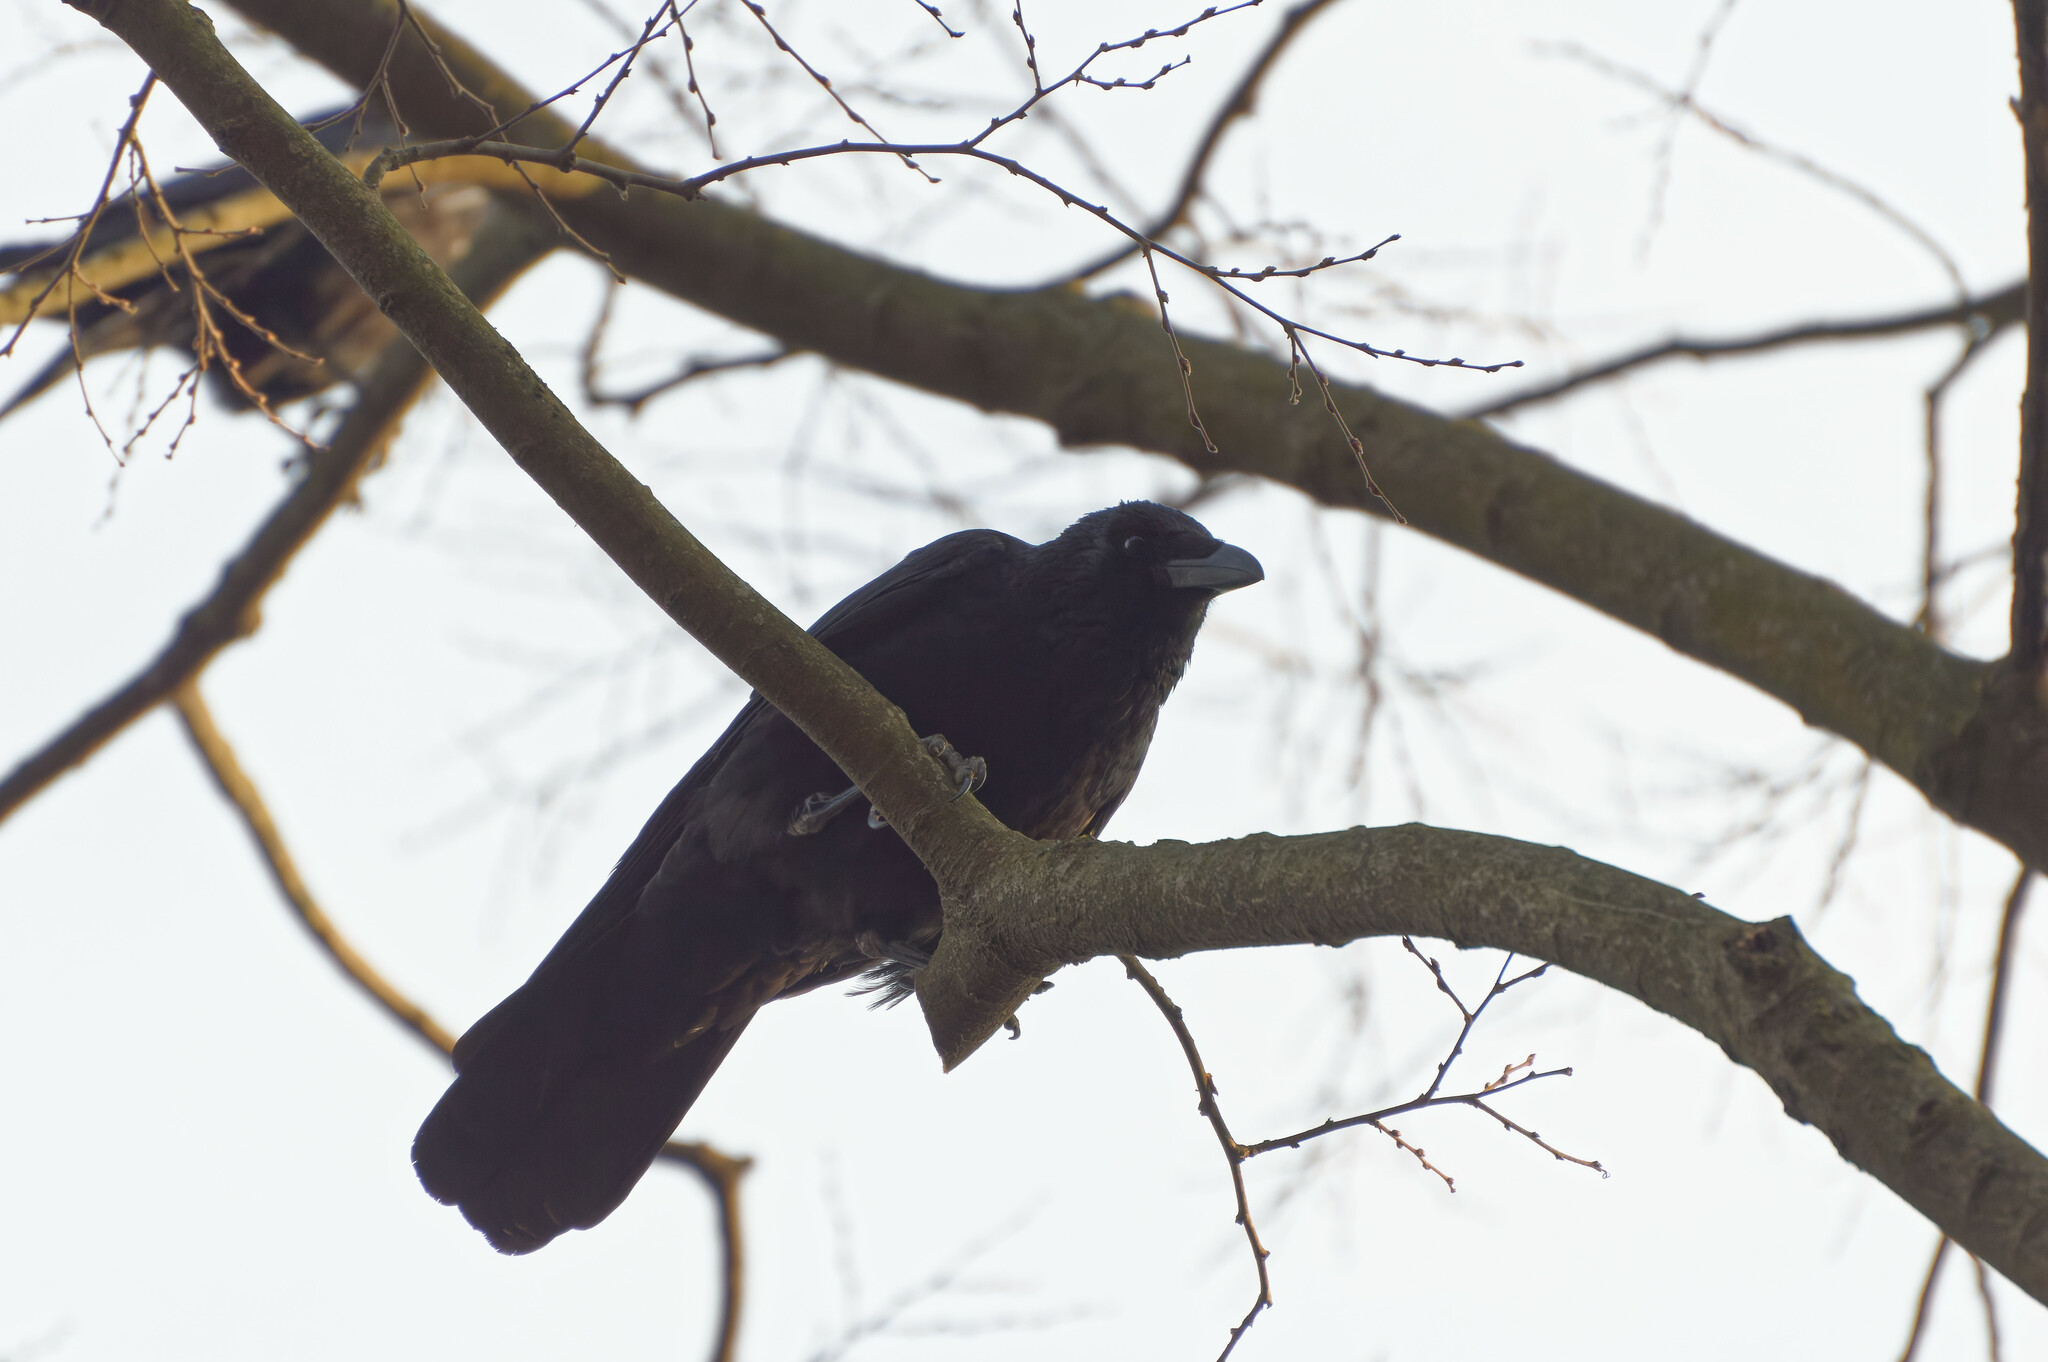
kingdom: Animalia
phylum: Chordata
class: Aves
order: Passeriformes
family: Corvidae
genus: Corvus
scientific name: Corvus corone
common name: Carrion crow
